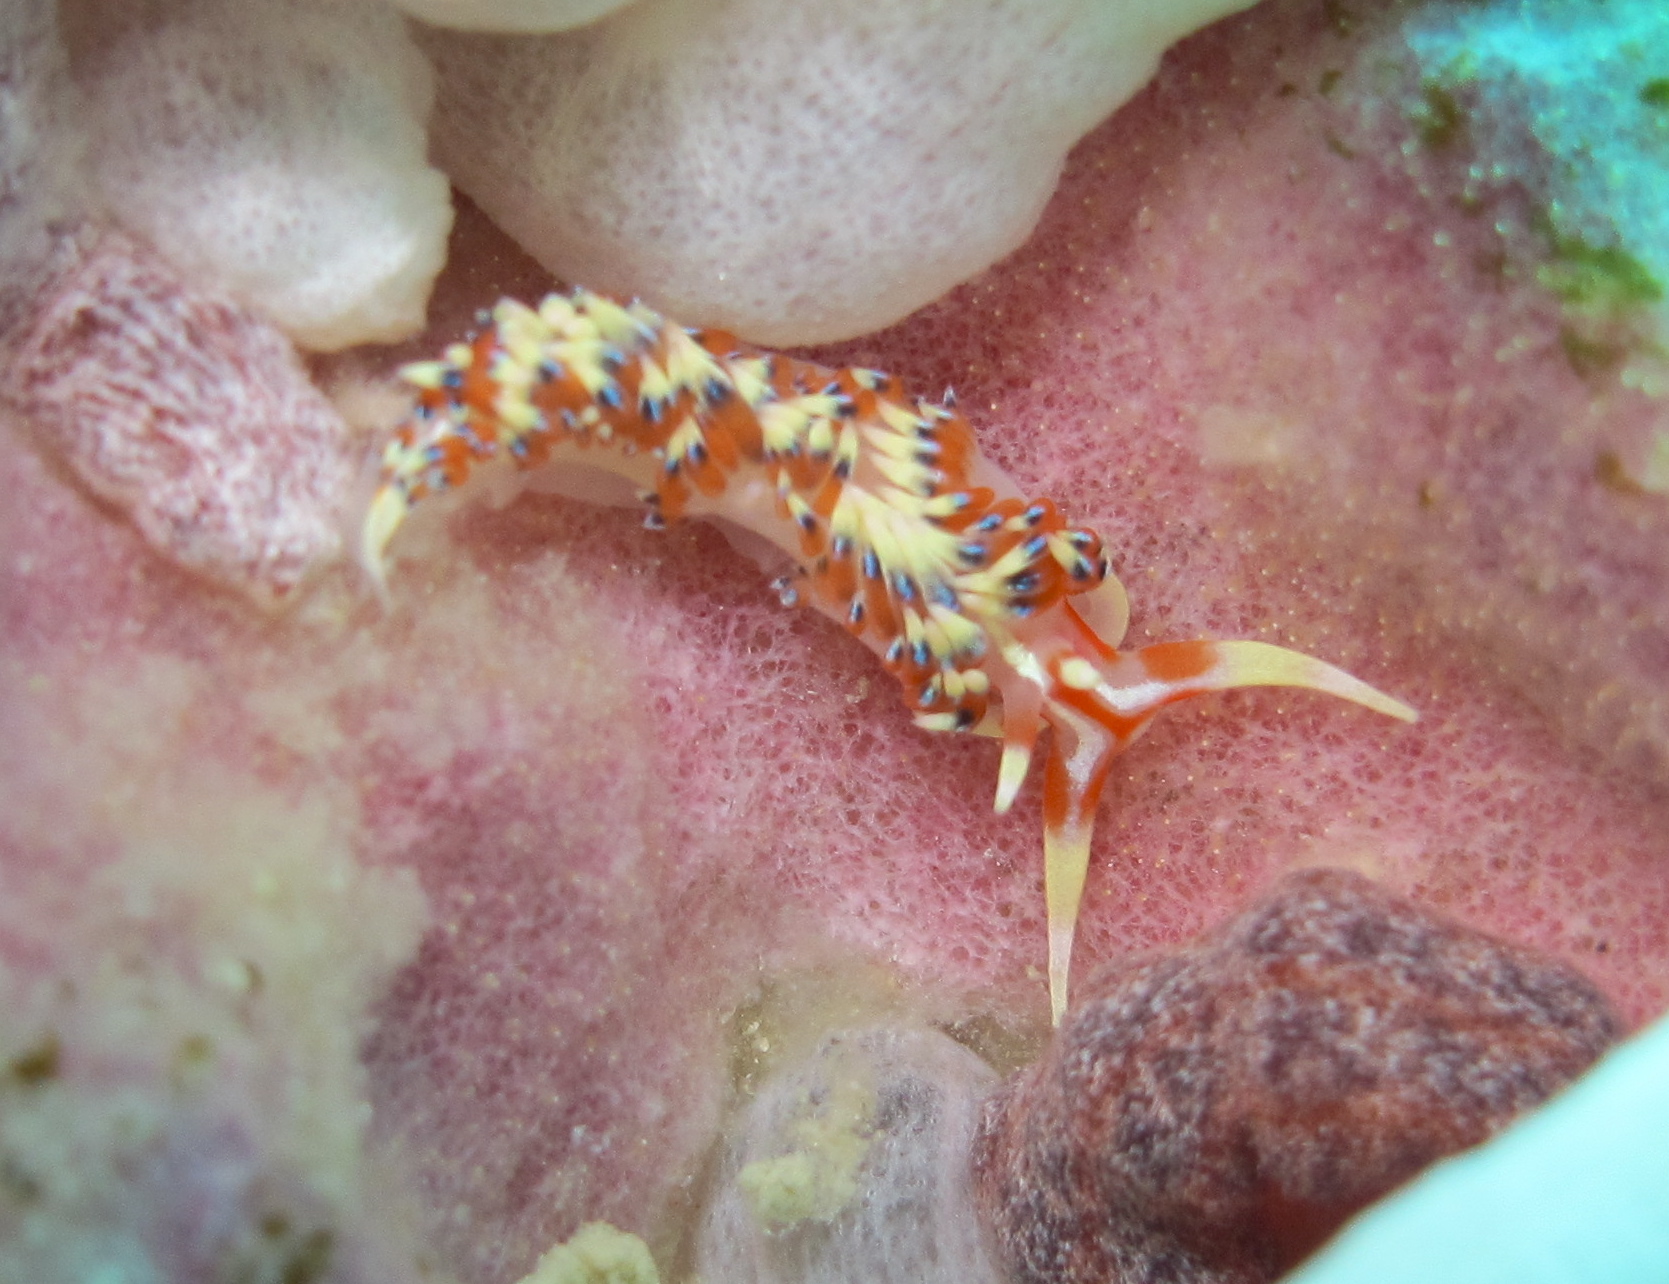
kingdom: Animalia
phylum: Mollusca
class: Gastropoda
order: Nudibranchia
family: Facelinidae
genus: Caloria
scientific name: Caloria indica
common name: Sea slug
